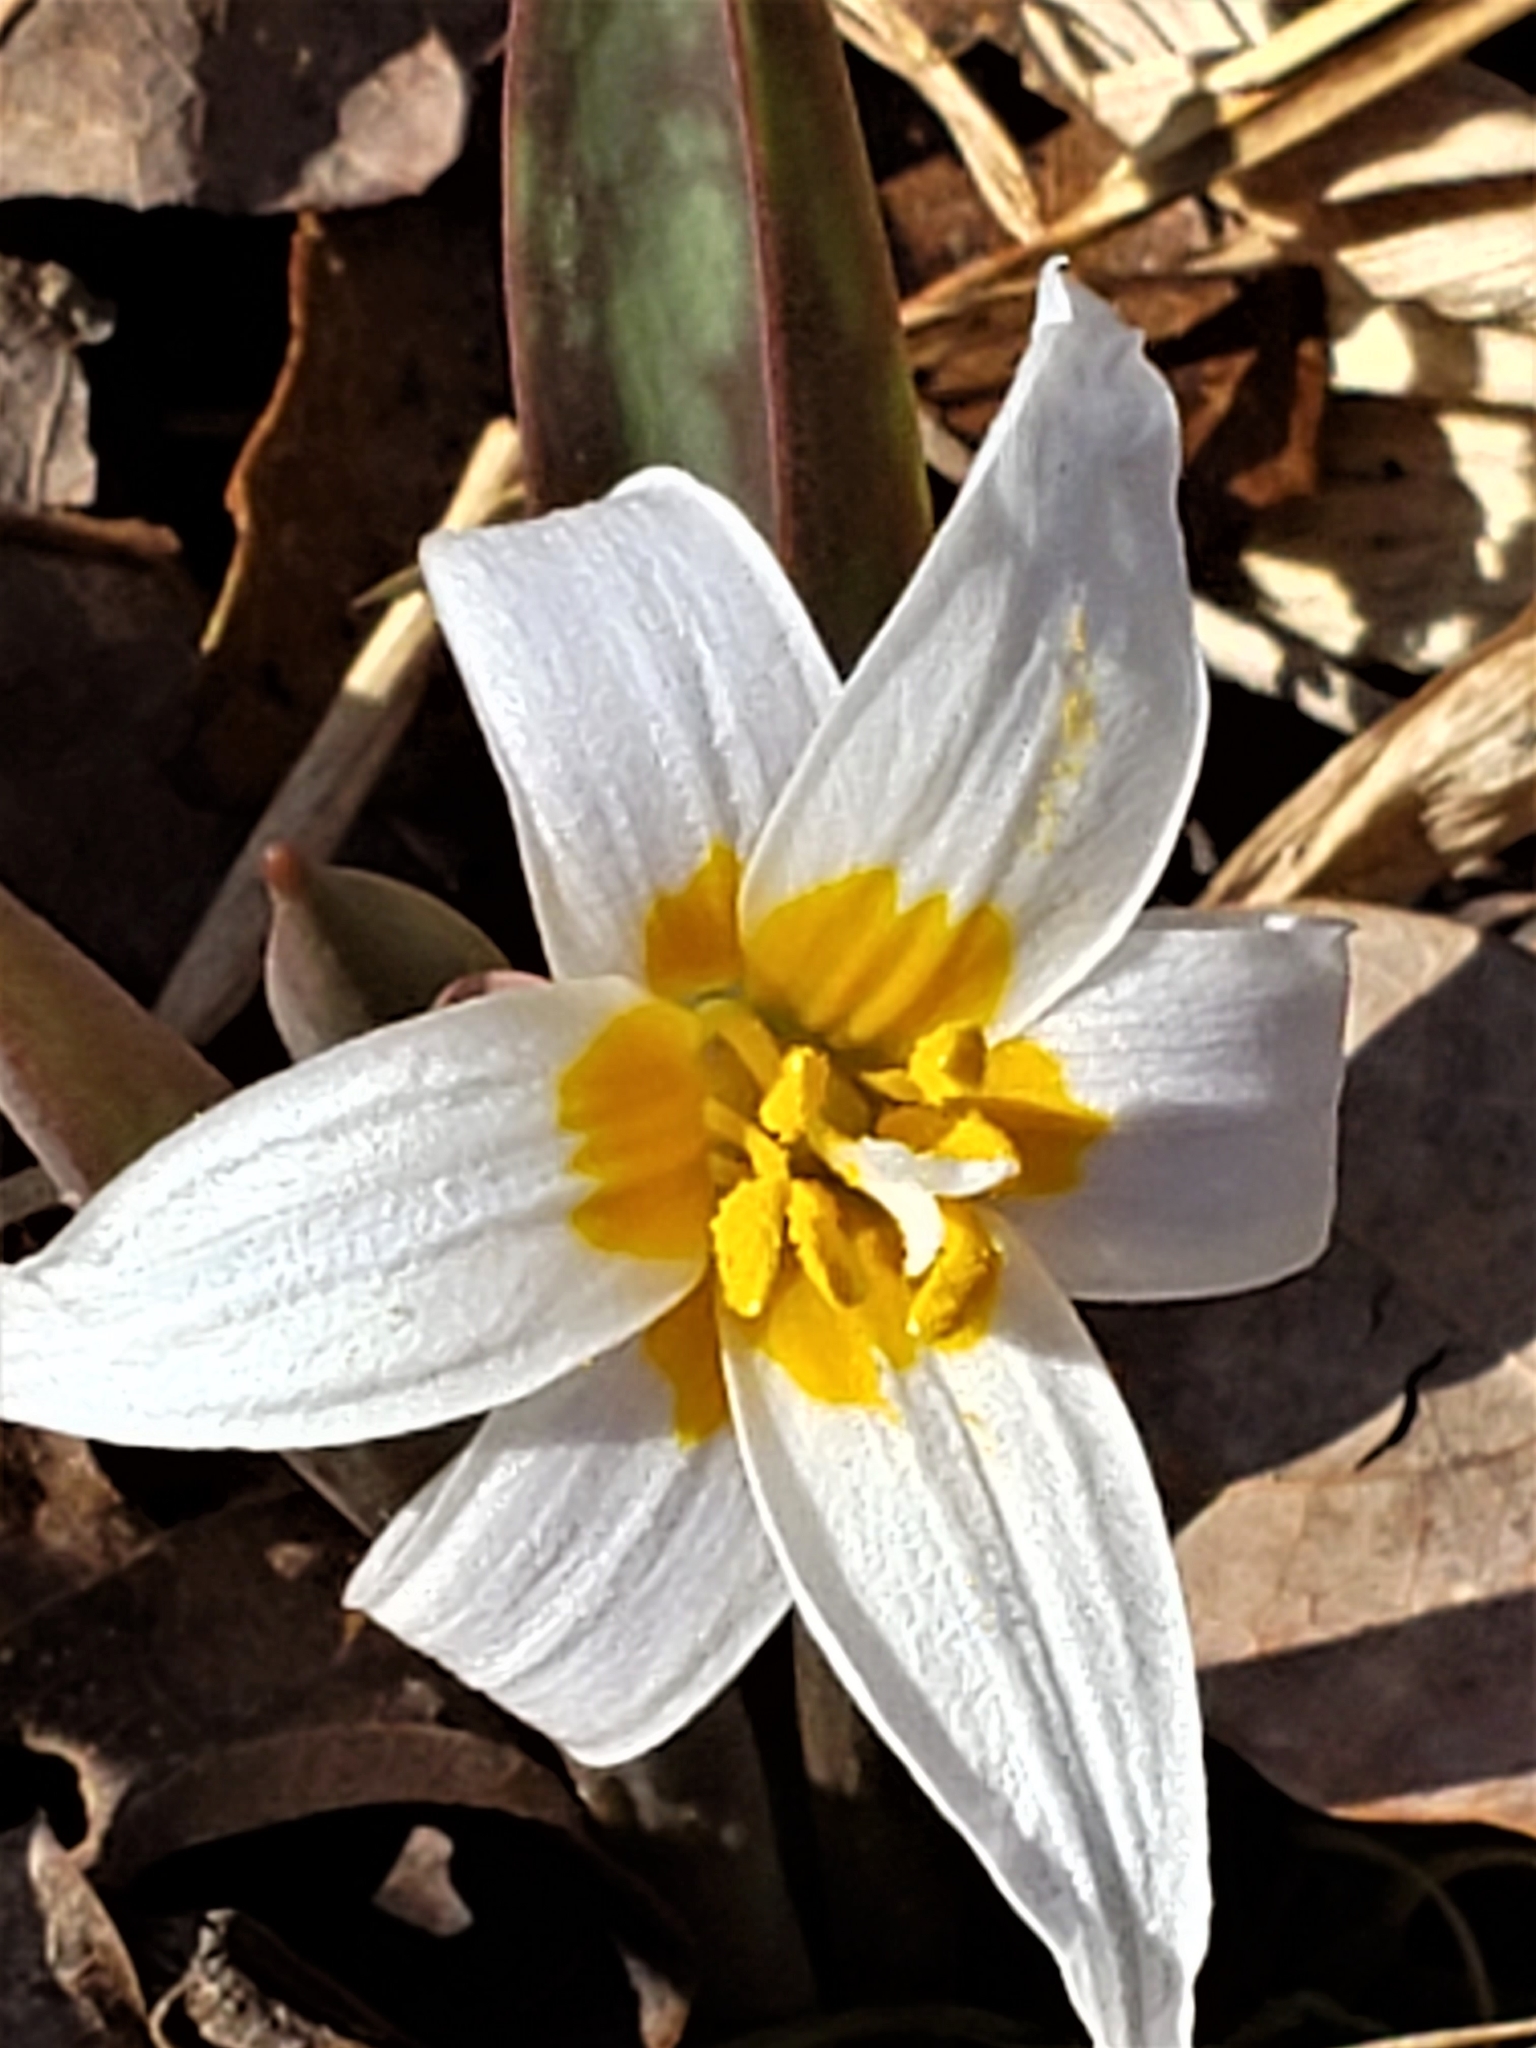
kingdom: Plantae
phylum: Tracheophyta
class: Liliopsida
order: Liliales
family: Liliaceae
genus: Erythronium
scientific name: Erythronium albidum
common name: White trout-lily
